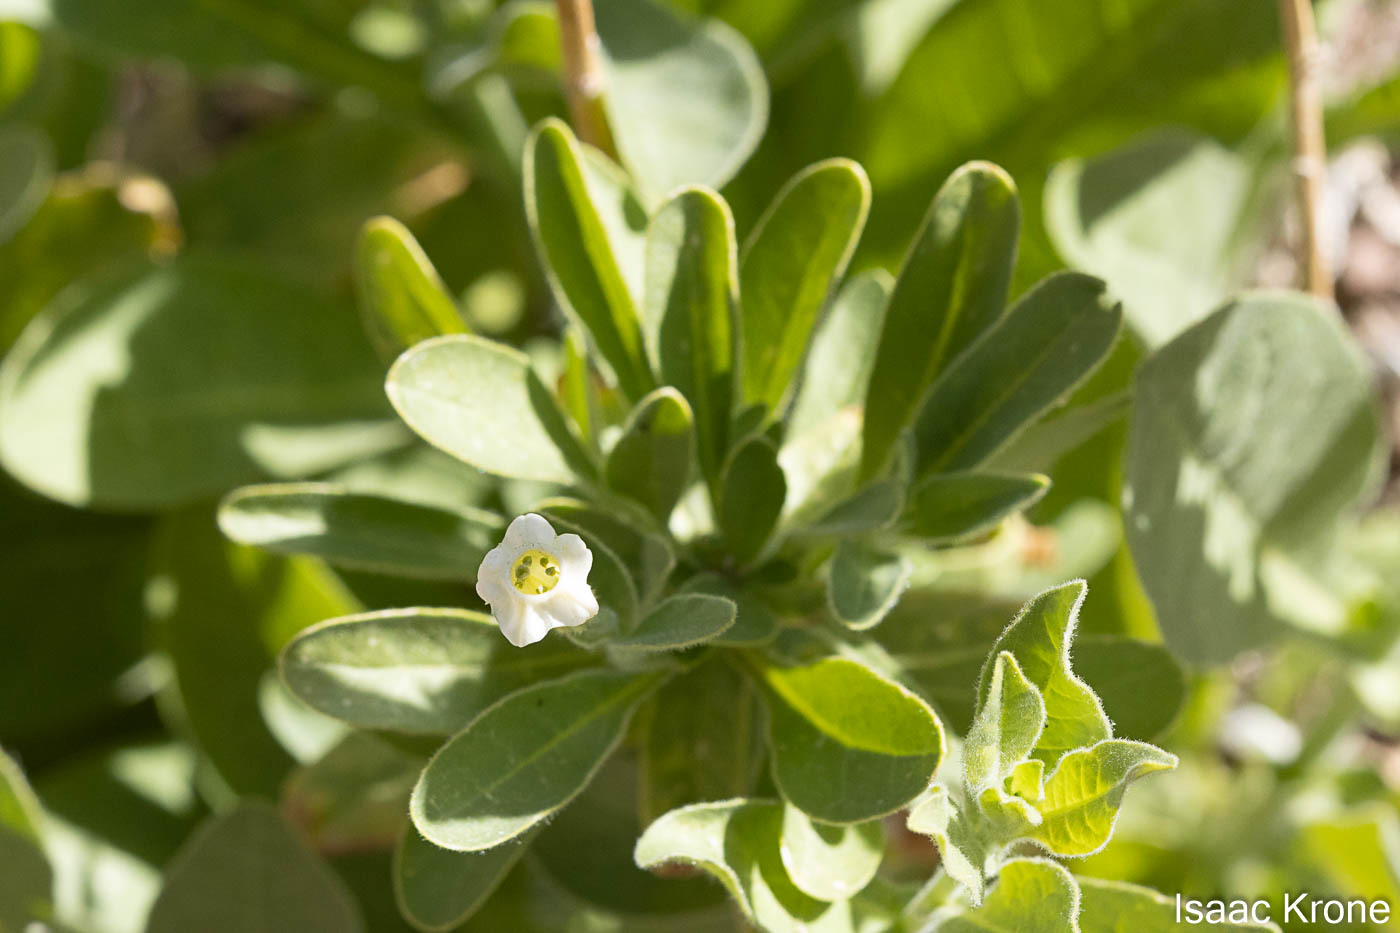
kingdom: Plantae
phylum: Tracheophyta
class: Magnoliopsida
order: Solanales
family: Solanaceae
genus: Nicotiana
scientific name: Nicotiana obtusifolia
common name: Desert tobacco
